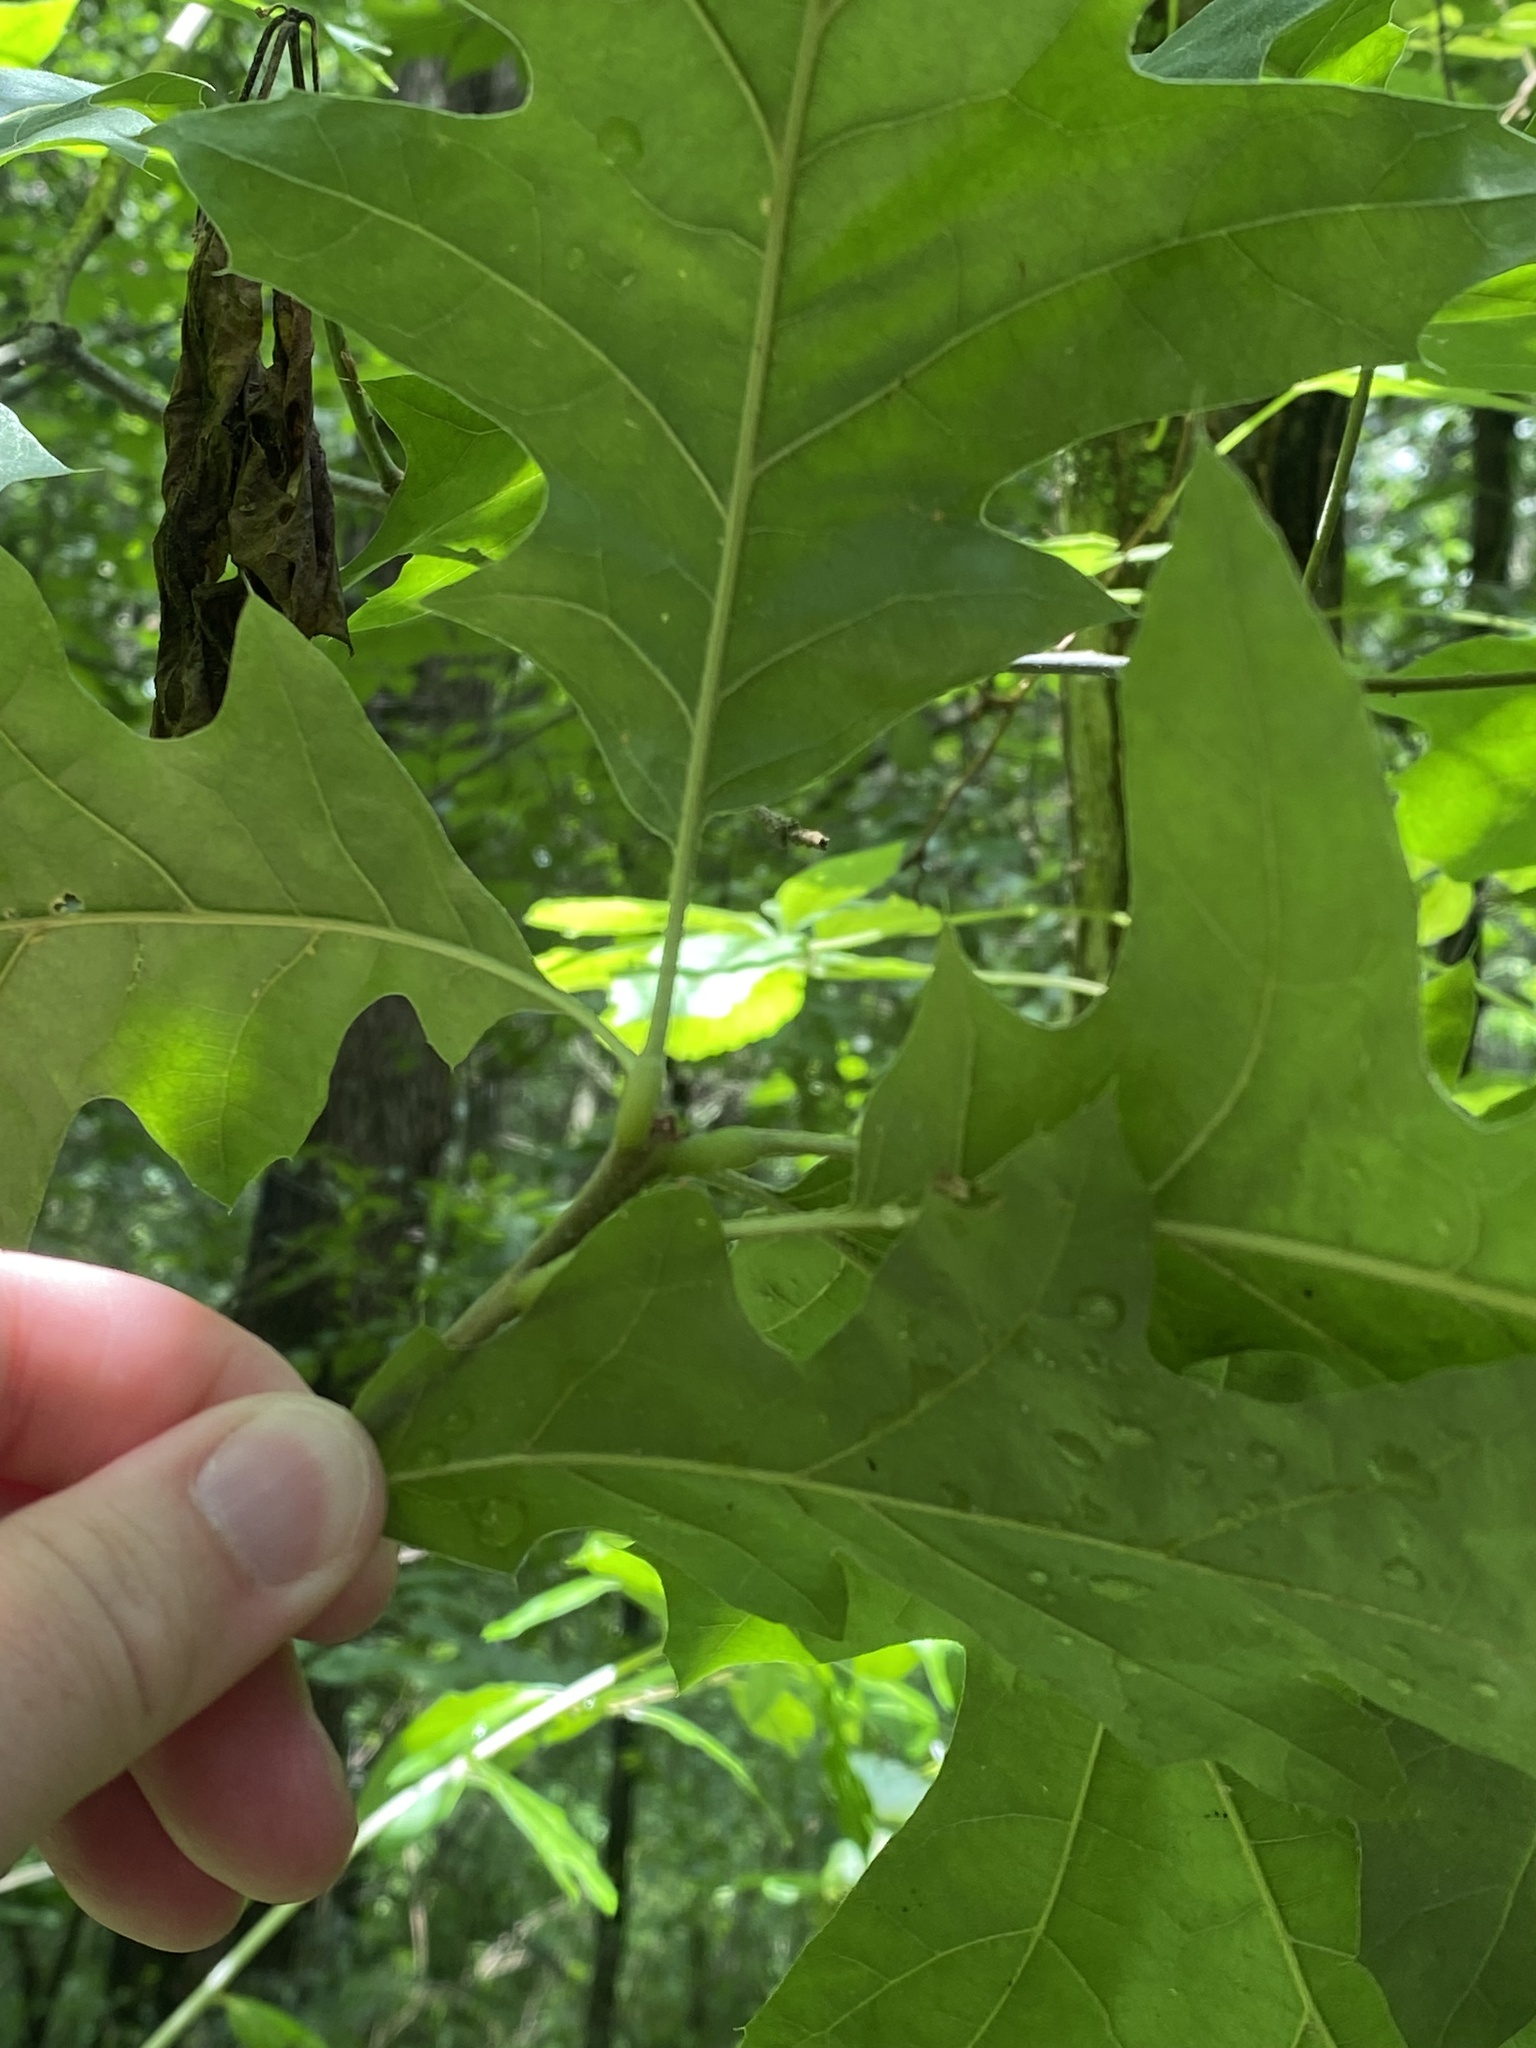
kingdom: Plantae
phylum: Tracheophyta
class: Magnoliopsida
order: Fagales
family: Fagaceae
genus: Quercus
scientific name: Quercus rubra
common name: Red oak
